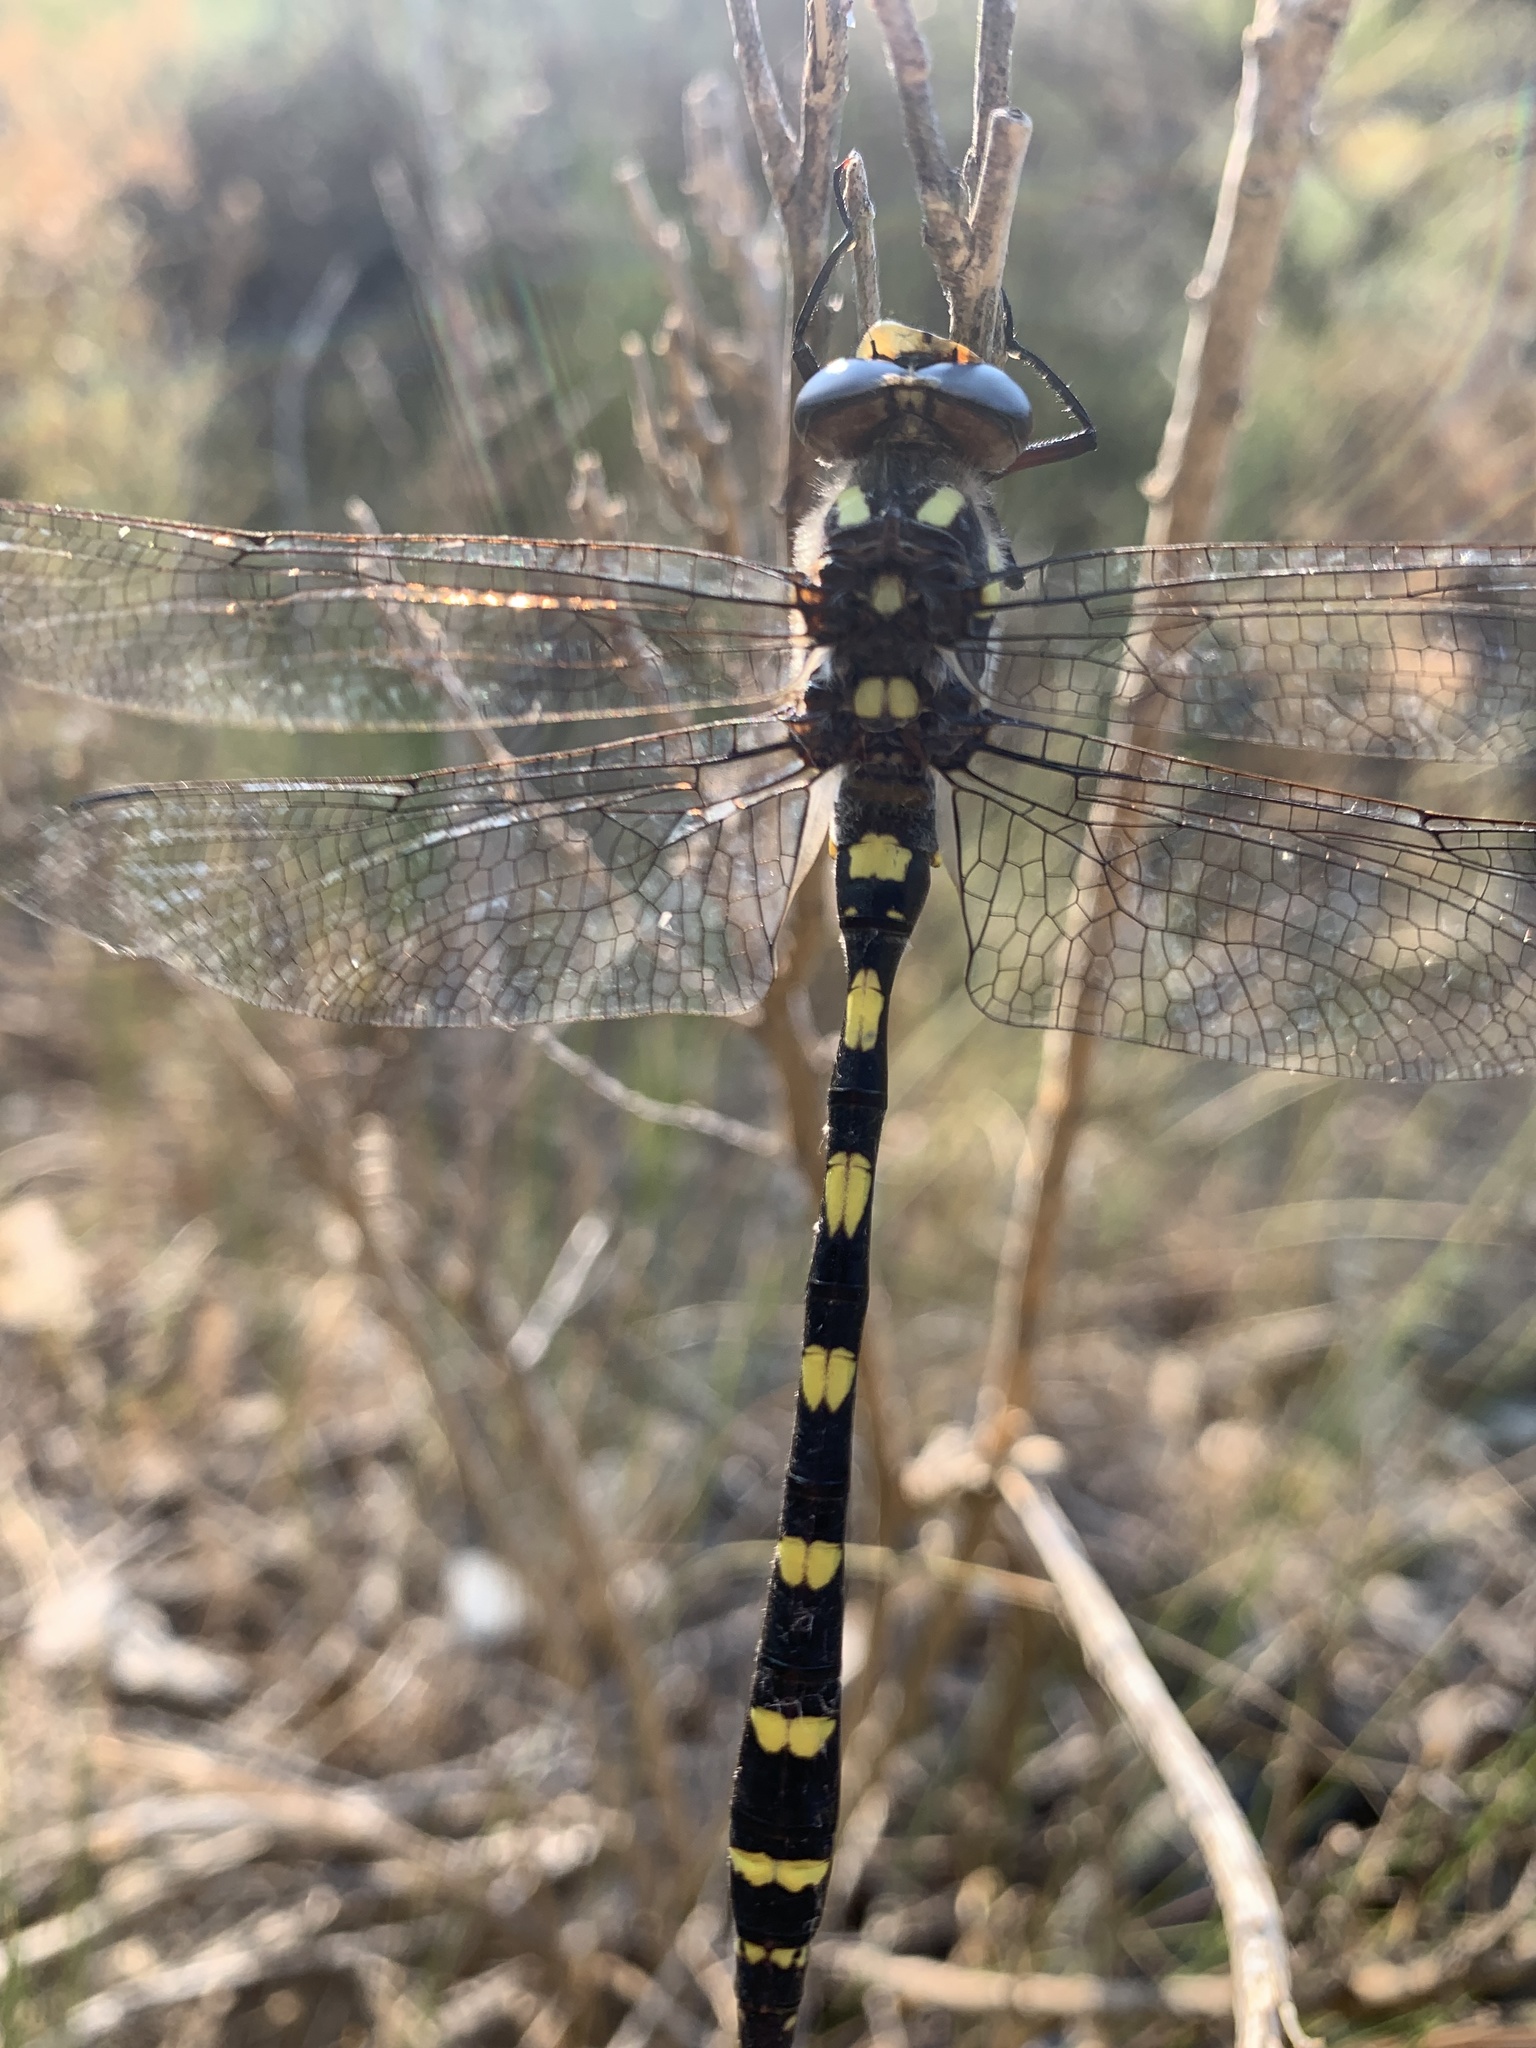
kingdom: Animalia
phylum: Arthropoda
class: Insecta
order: Odonata
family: Cordulegastridae
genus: Cordulegaster
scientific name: Cordulegaster dorsalis
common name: Pacific spiketail
